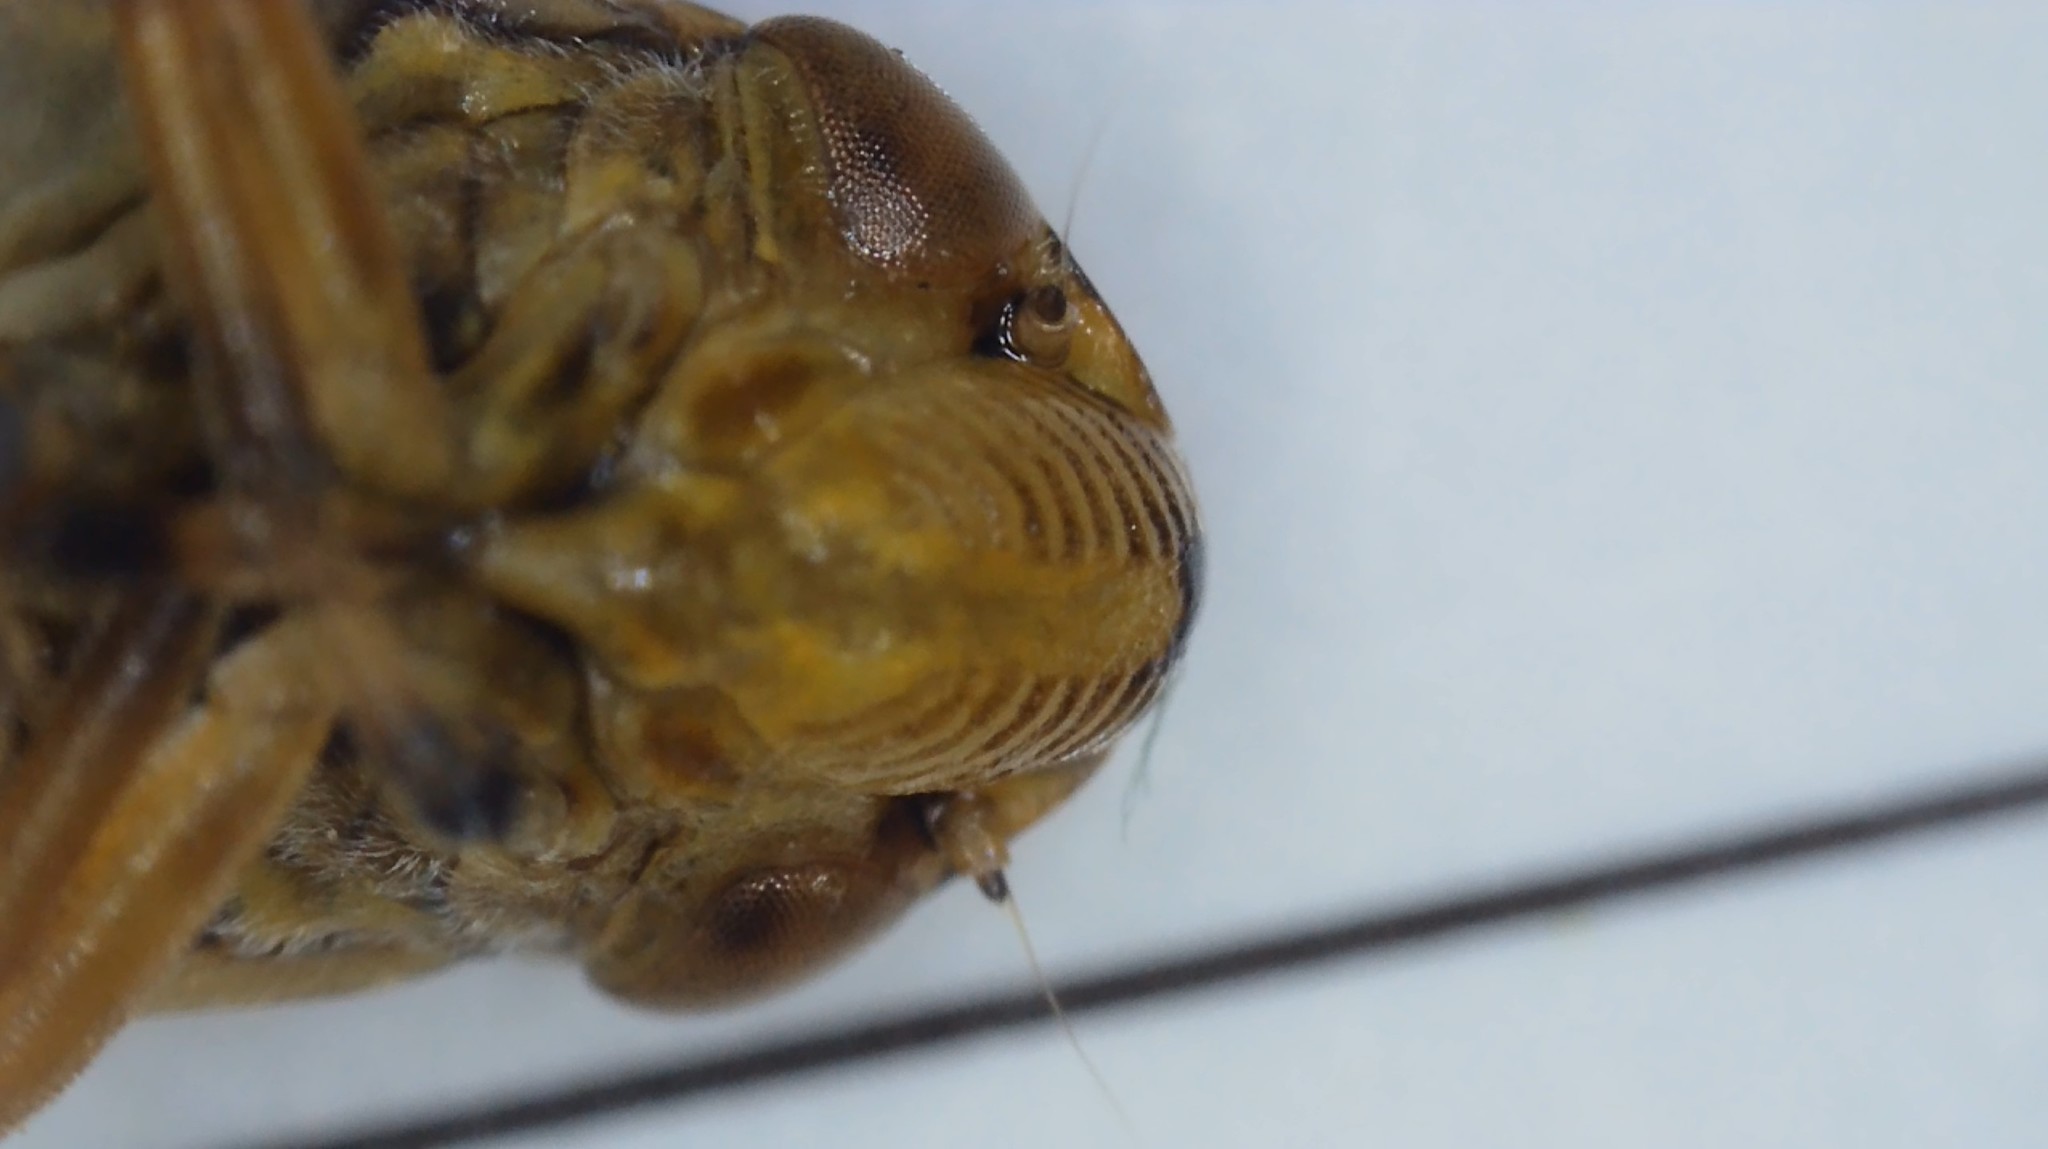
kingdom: Animalia
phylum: Arthropoda
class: Insecta
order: Hemiptera
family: Aphrophoridae
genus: Philaenus
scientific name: Philaenus spumarius
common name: Meadow spittlebug
